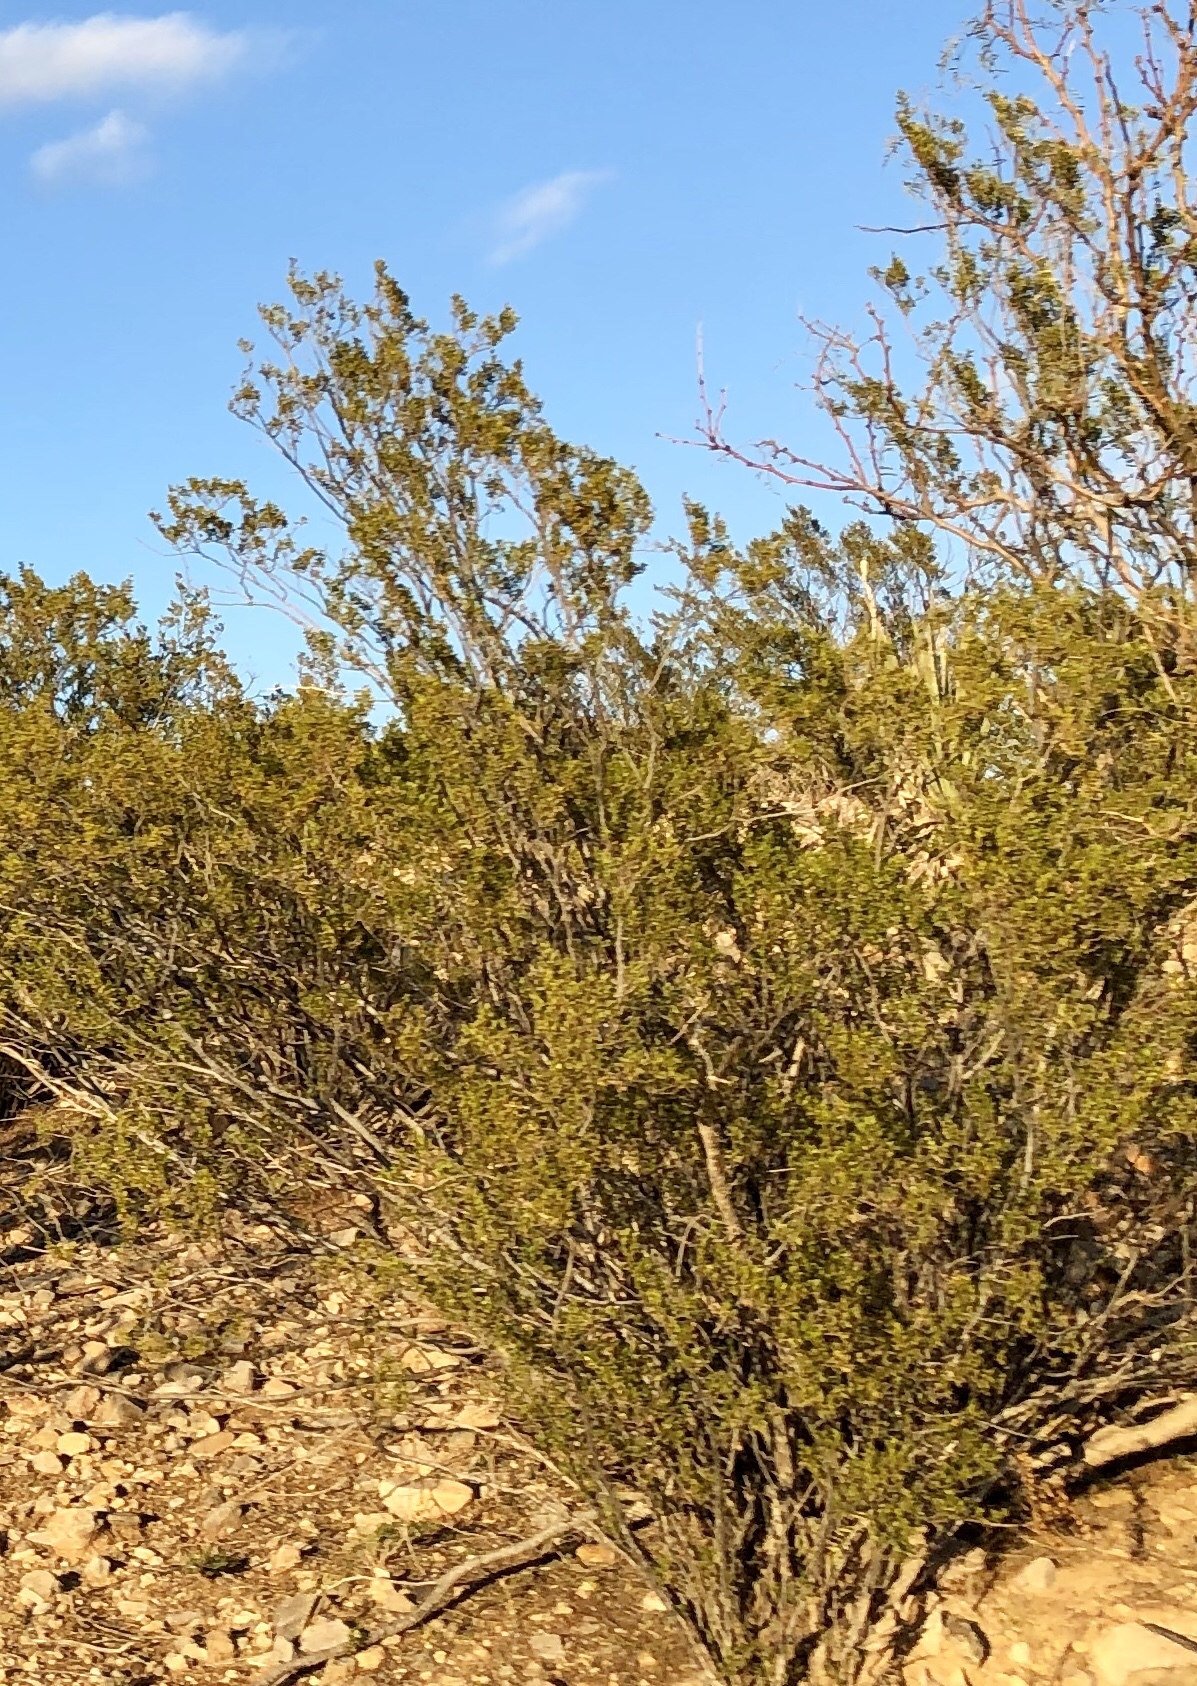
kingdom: Plantae
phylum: Tracheophyta
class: Magnoliopsida
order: Zygophyllales
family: Zygophyllaceae
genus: Larrea
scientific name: Larrea tridentata
